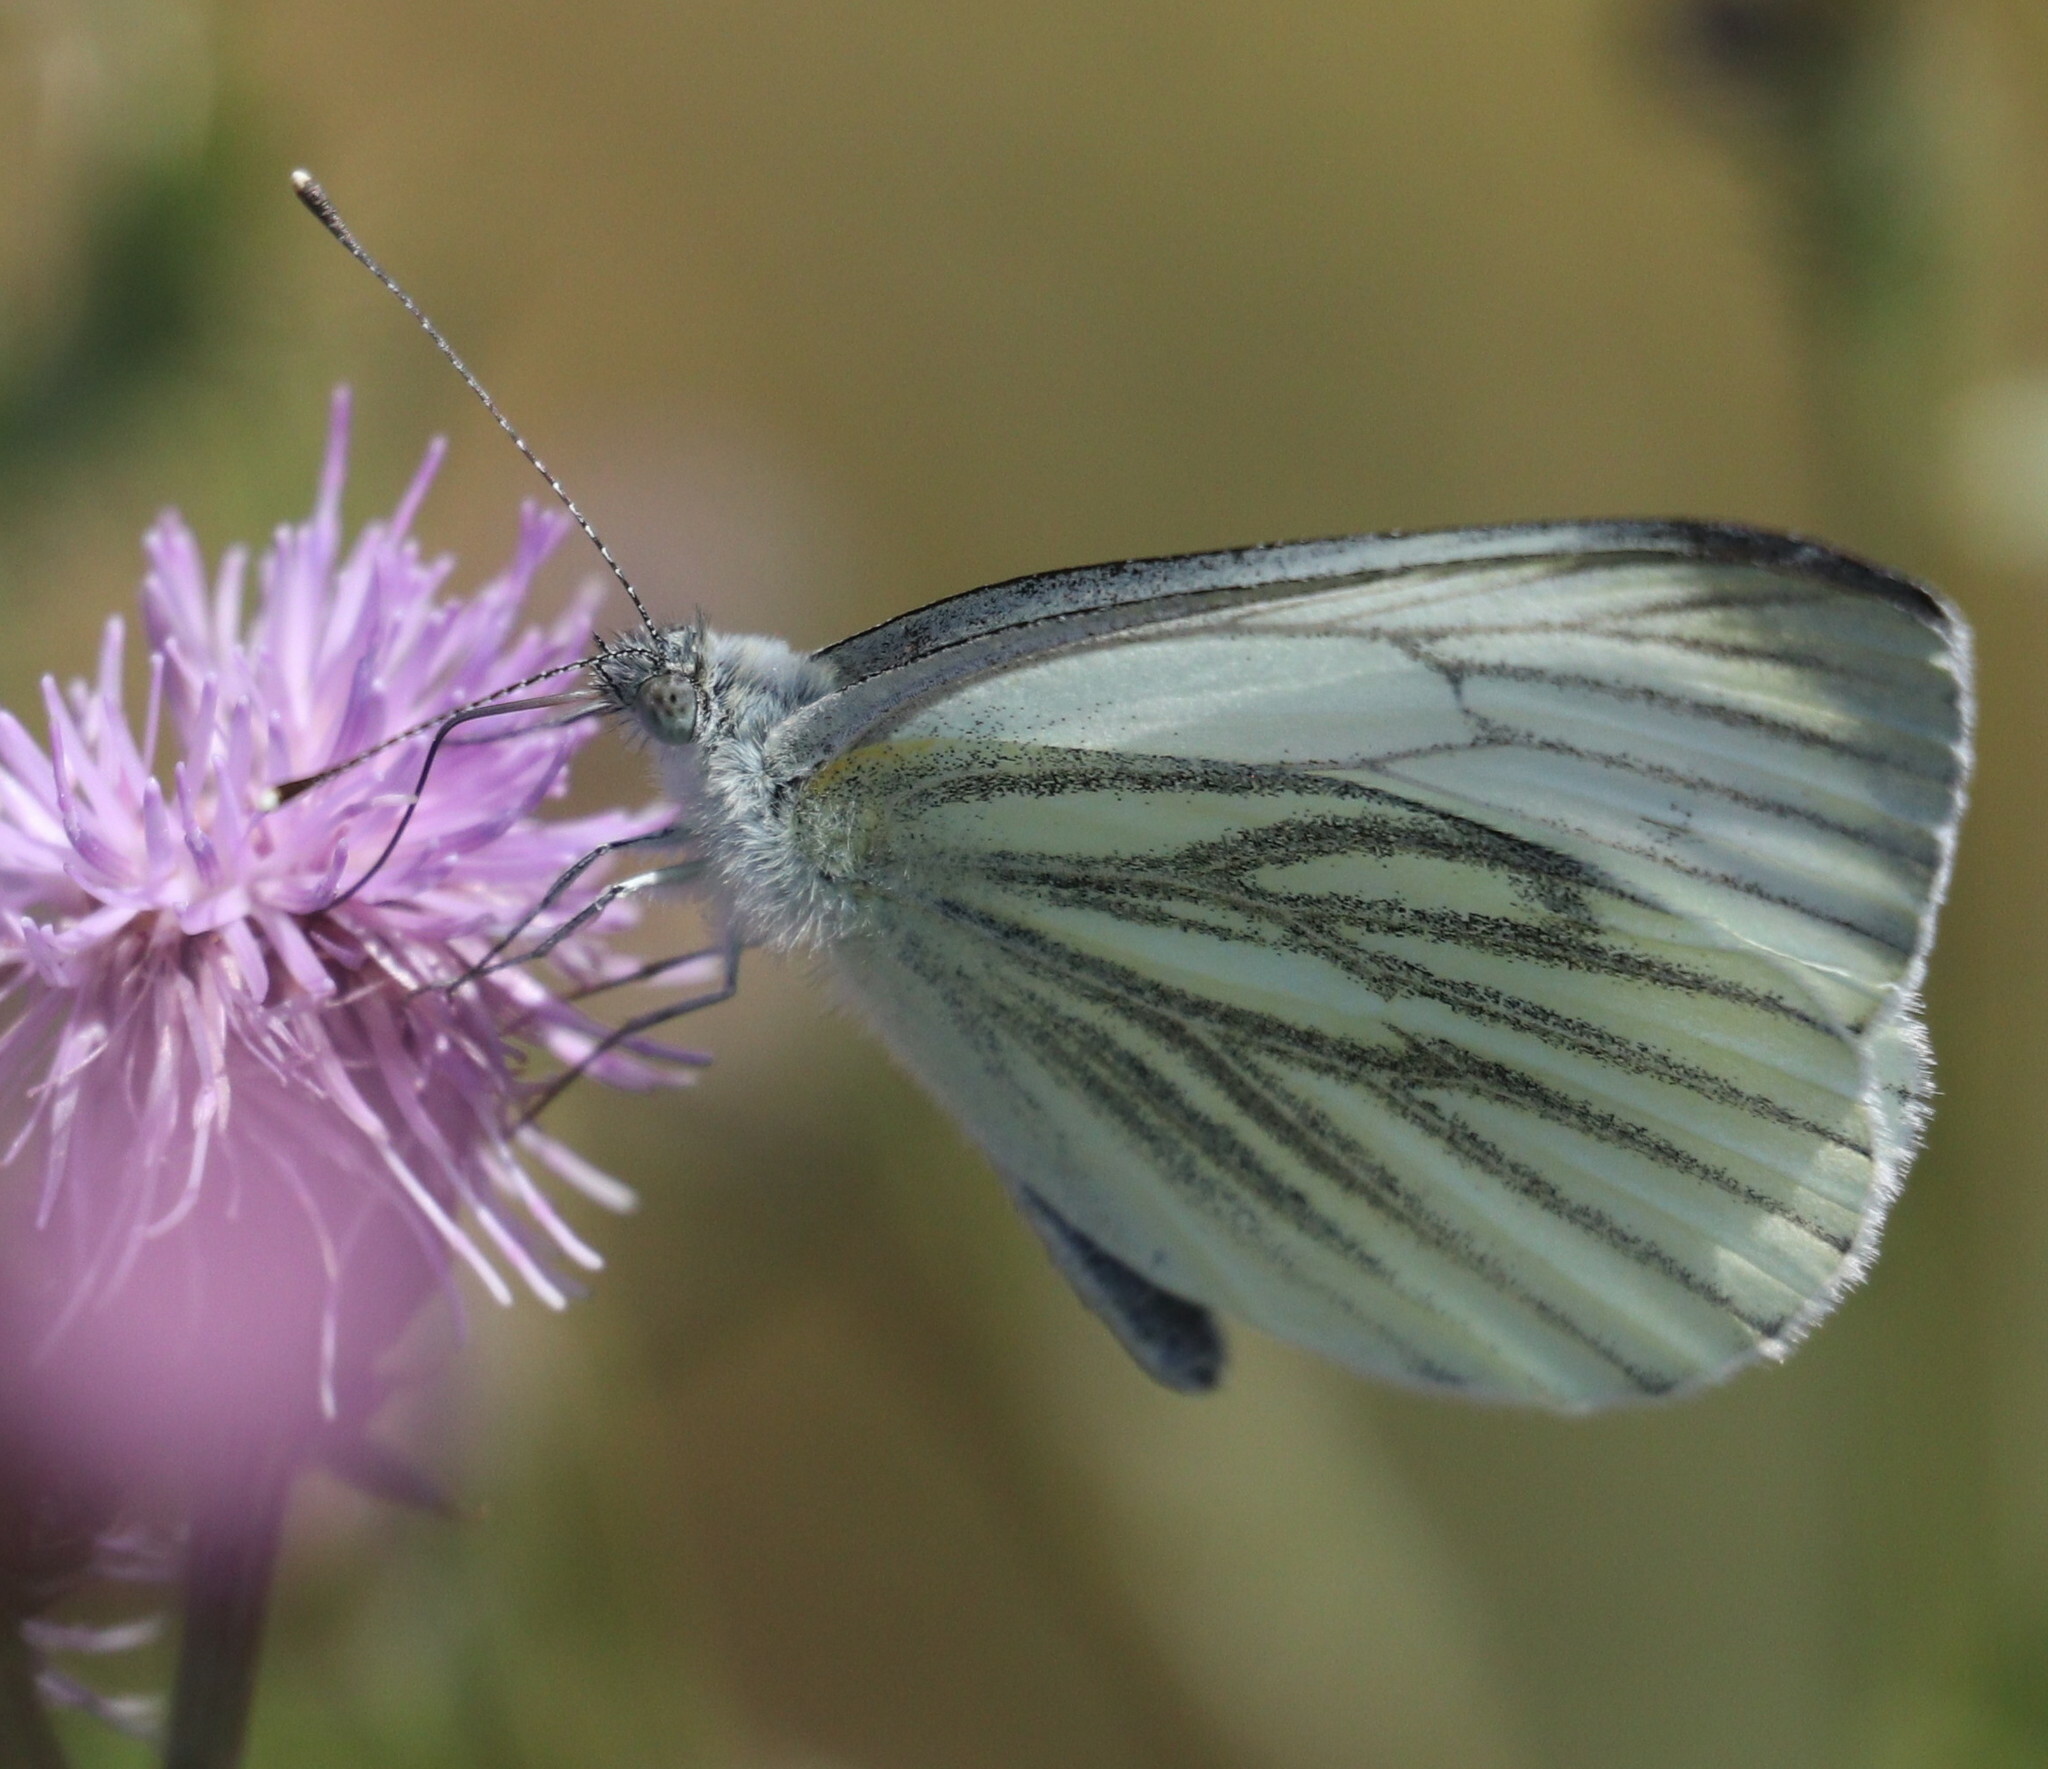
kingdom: Animalia
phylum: Arthropoda
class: Insecta
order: Lepidoptera
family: Pieridae
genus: Pieris
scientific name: Pieris napi
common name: Green-veined white
